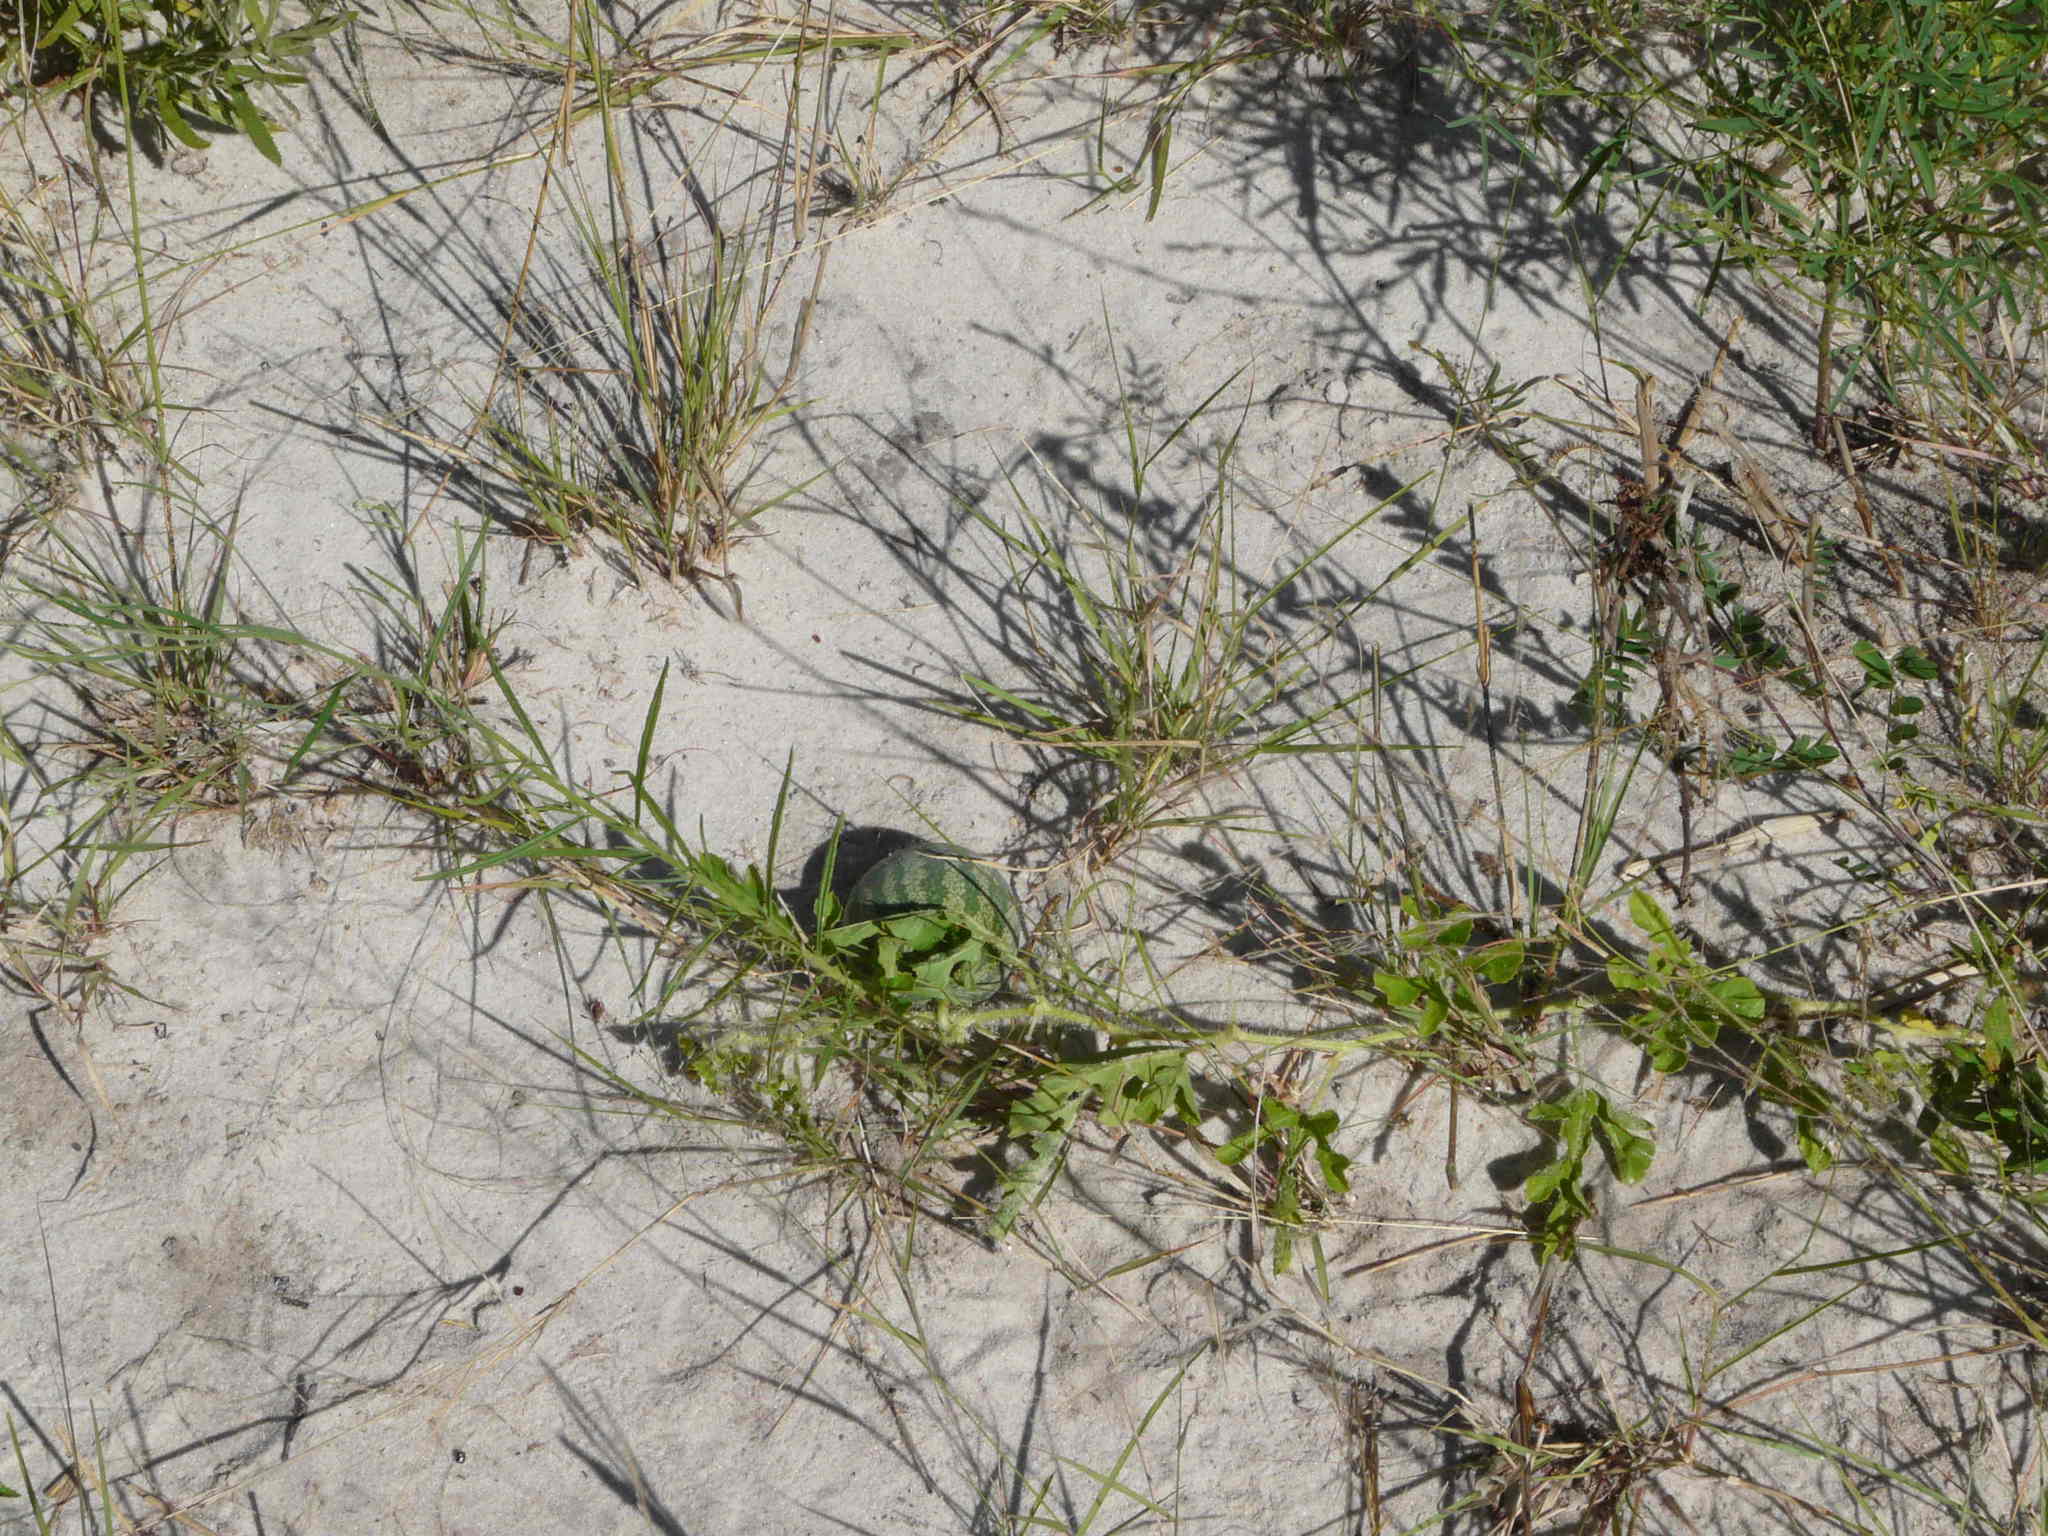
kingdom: Plantae
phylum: Tracheophyta
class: Magnoliopsida
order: Cucurbitales
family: Cucurbitaceae
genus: Citrullus
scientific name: Citrullus amarus
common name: Fodder-melon
